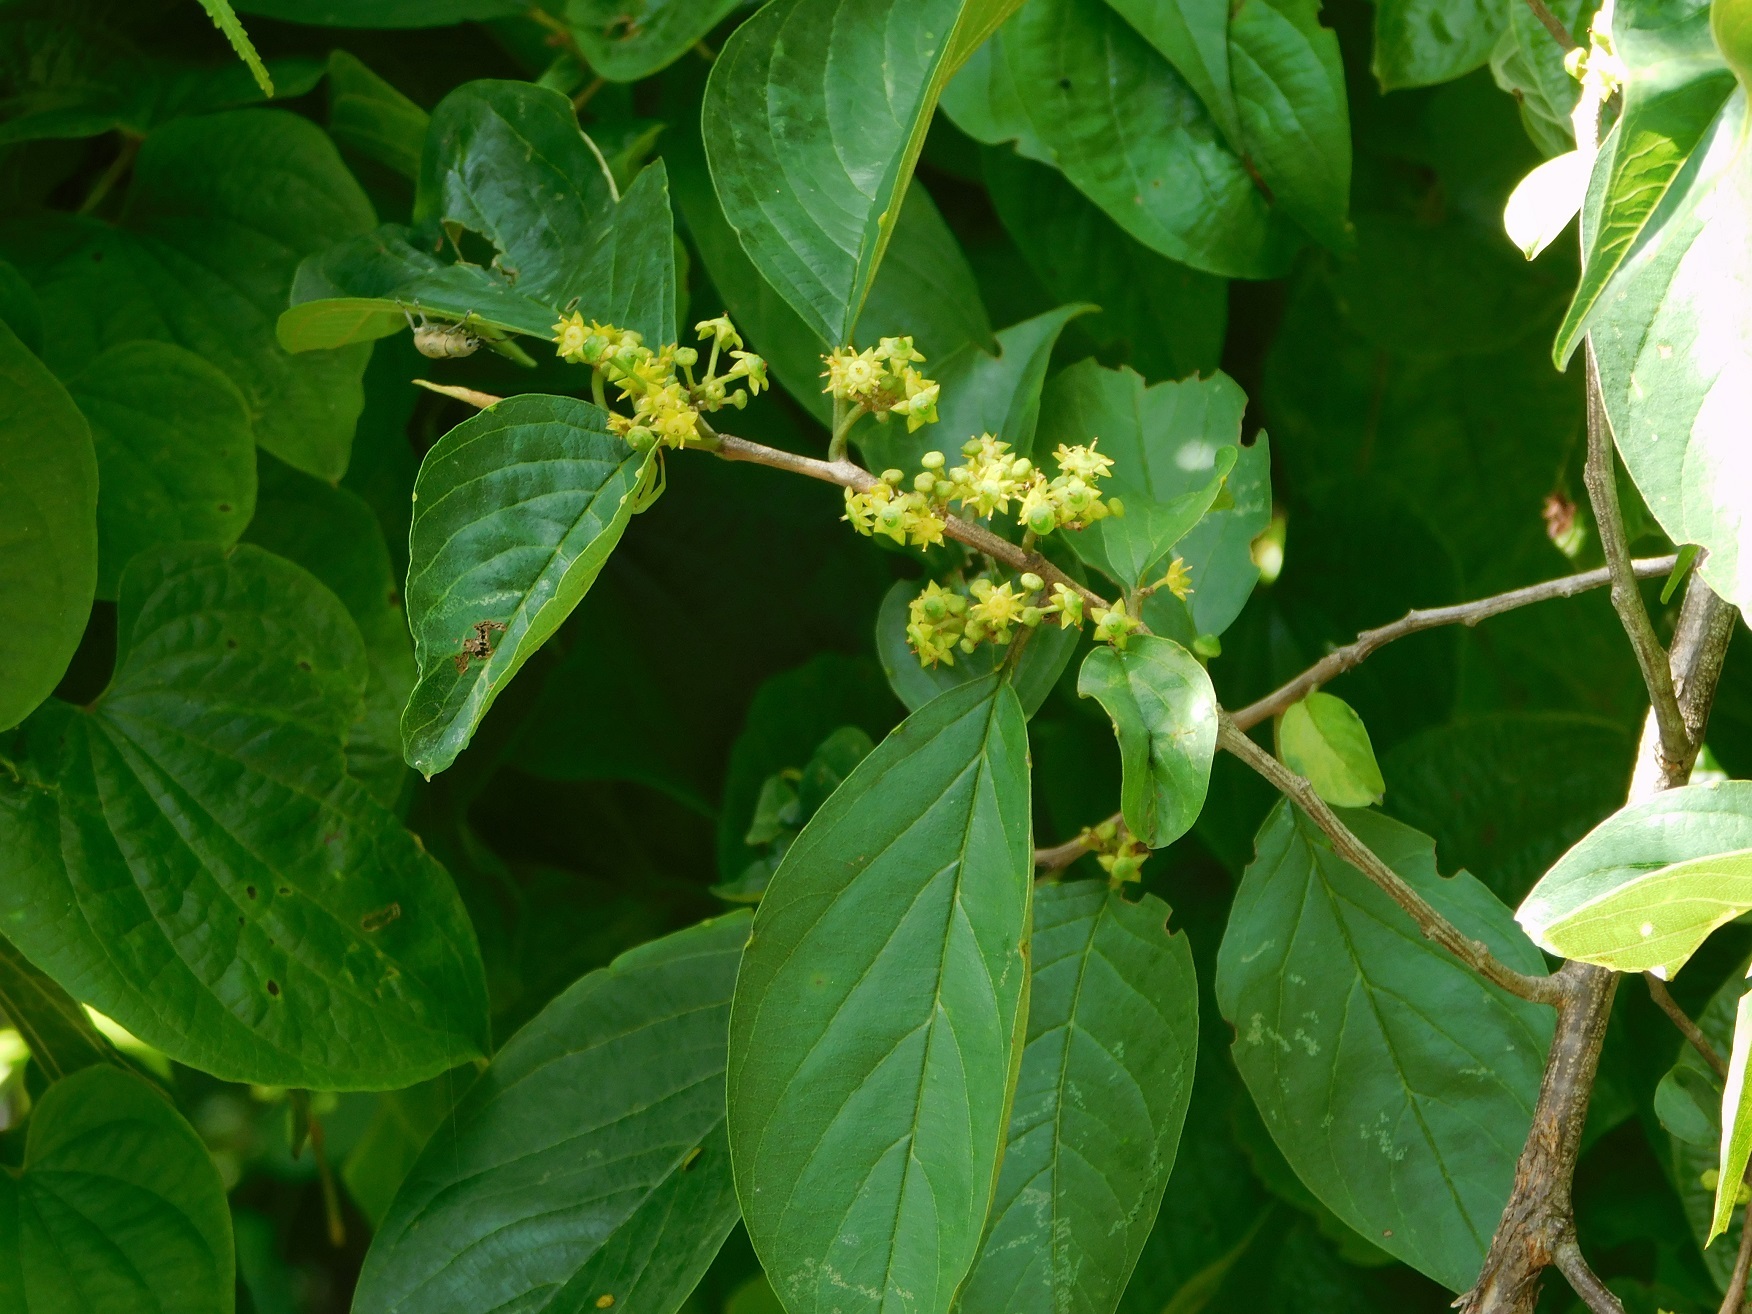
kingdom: Plantae
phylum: Tracheophyta
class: Magnoliopsida
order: Rosales
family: Rhamnaceae
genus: Colubrina
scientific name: Colubrina arborescens
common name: Wild coffee
